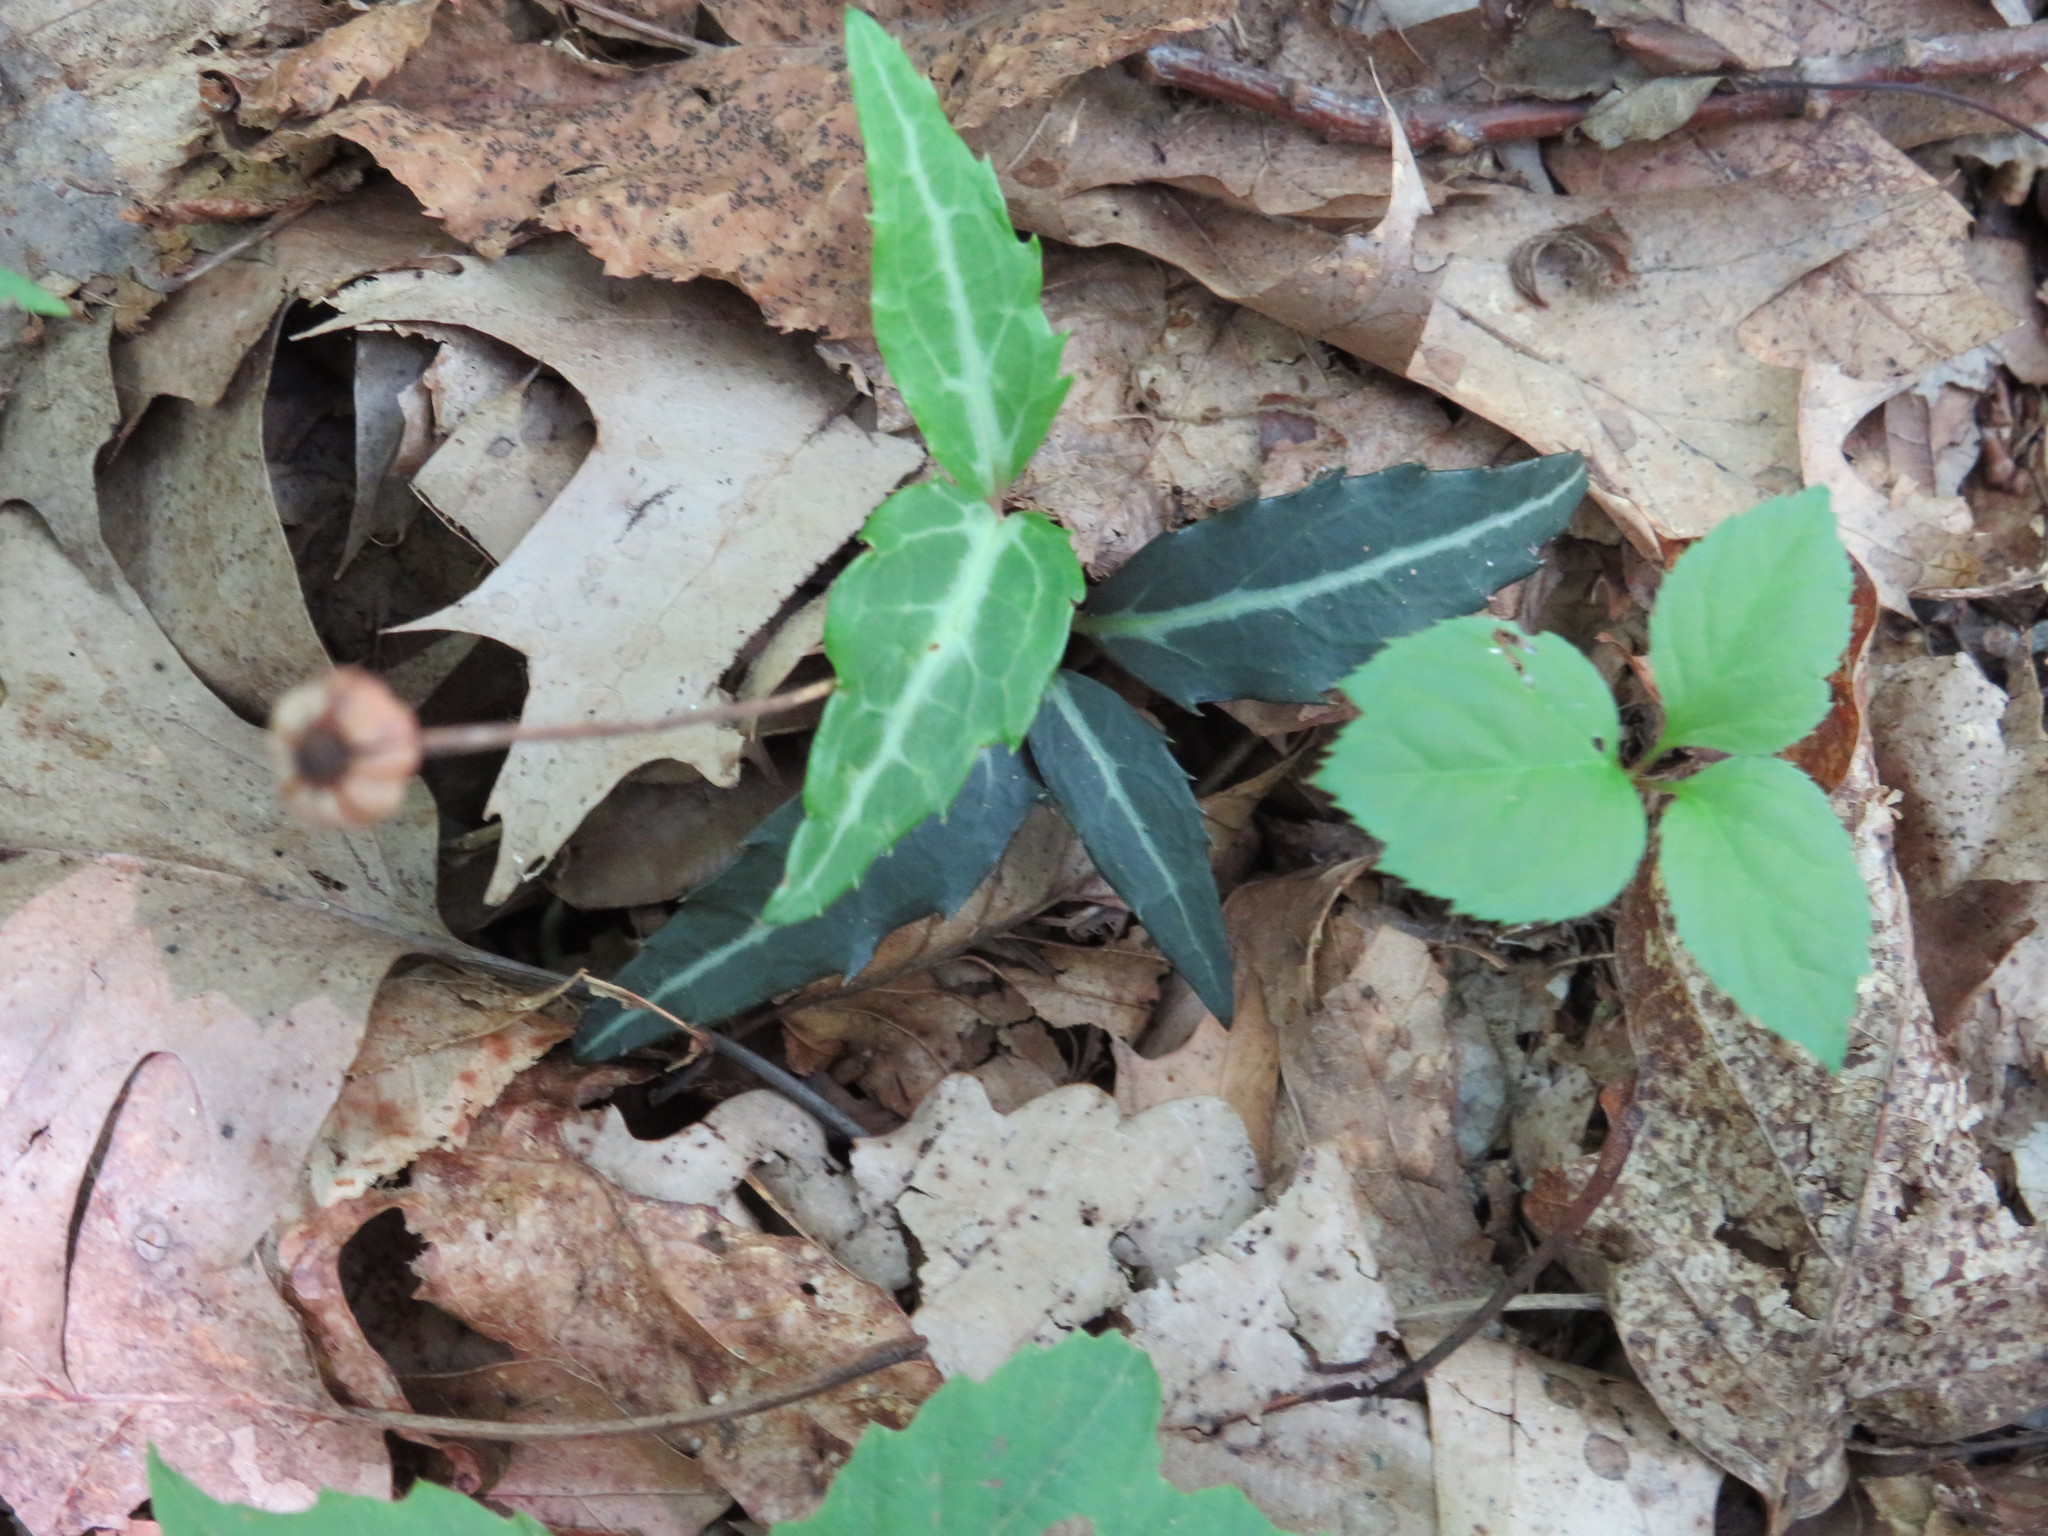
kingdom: Plantae
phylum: Tracheophyta
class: Magnoliopsida
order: Ericales
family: Ericaceae
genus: Chimaphila
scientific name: Chimaphila maculata
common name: Spotted pipsissewa
